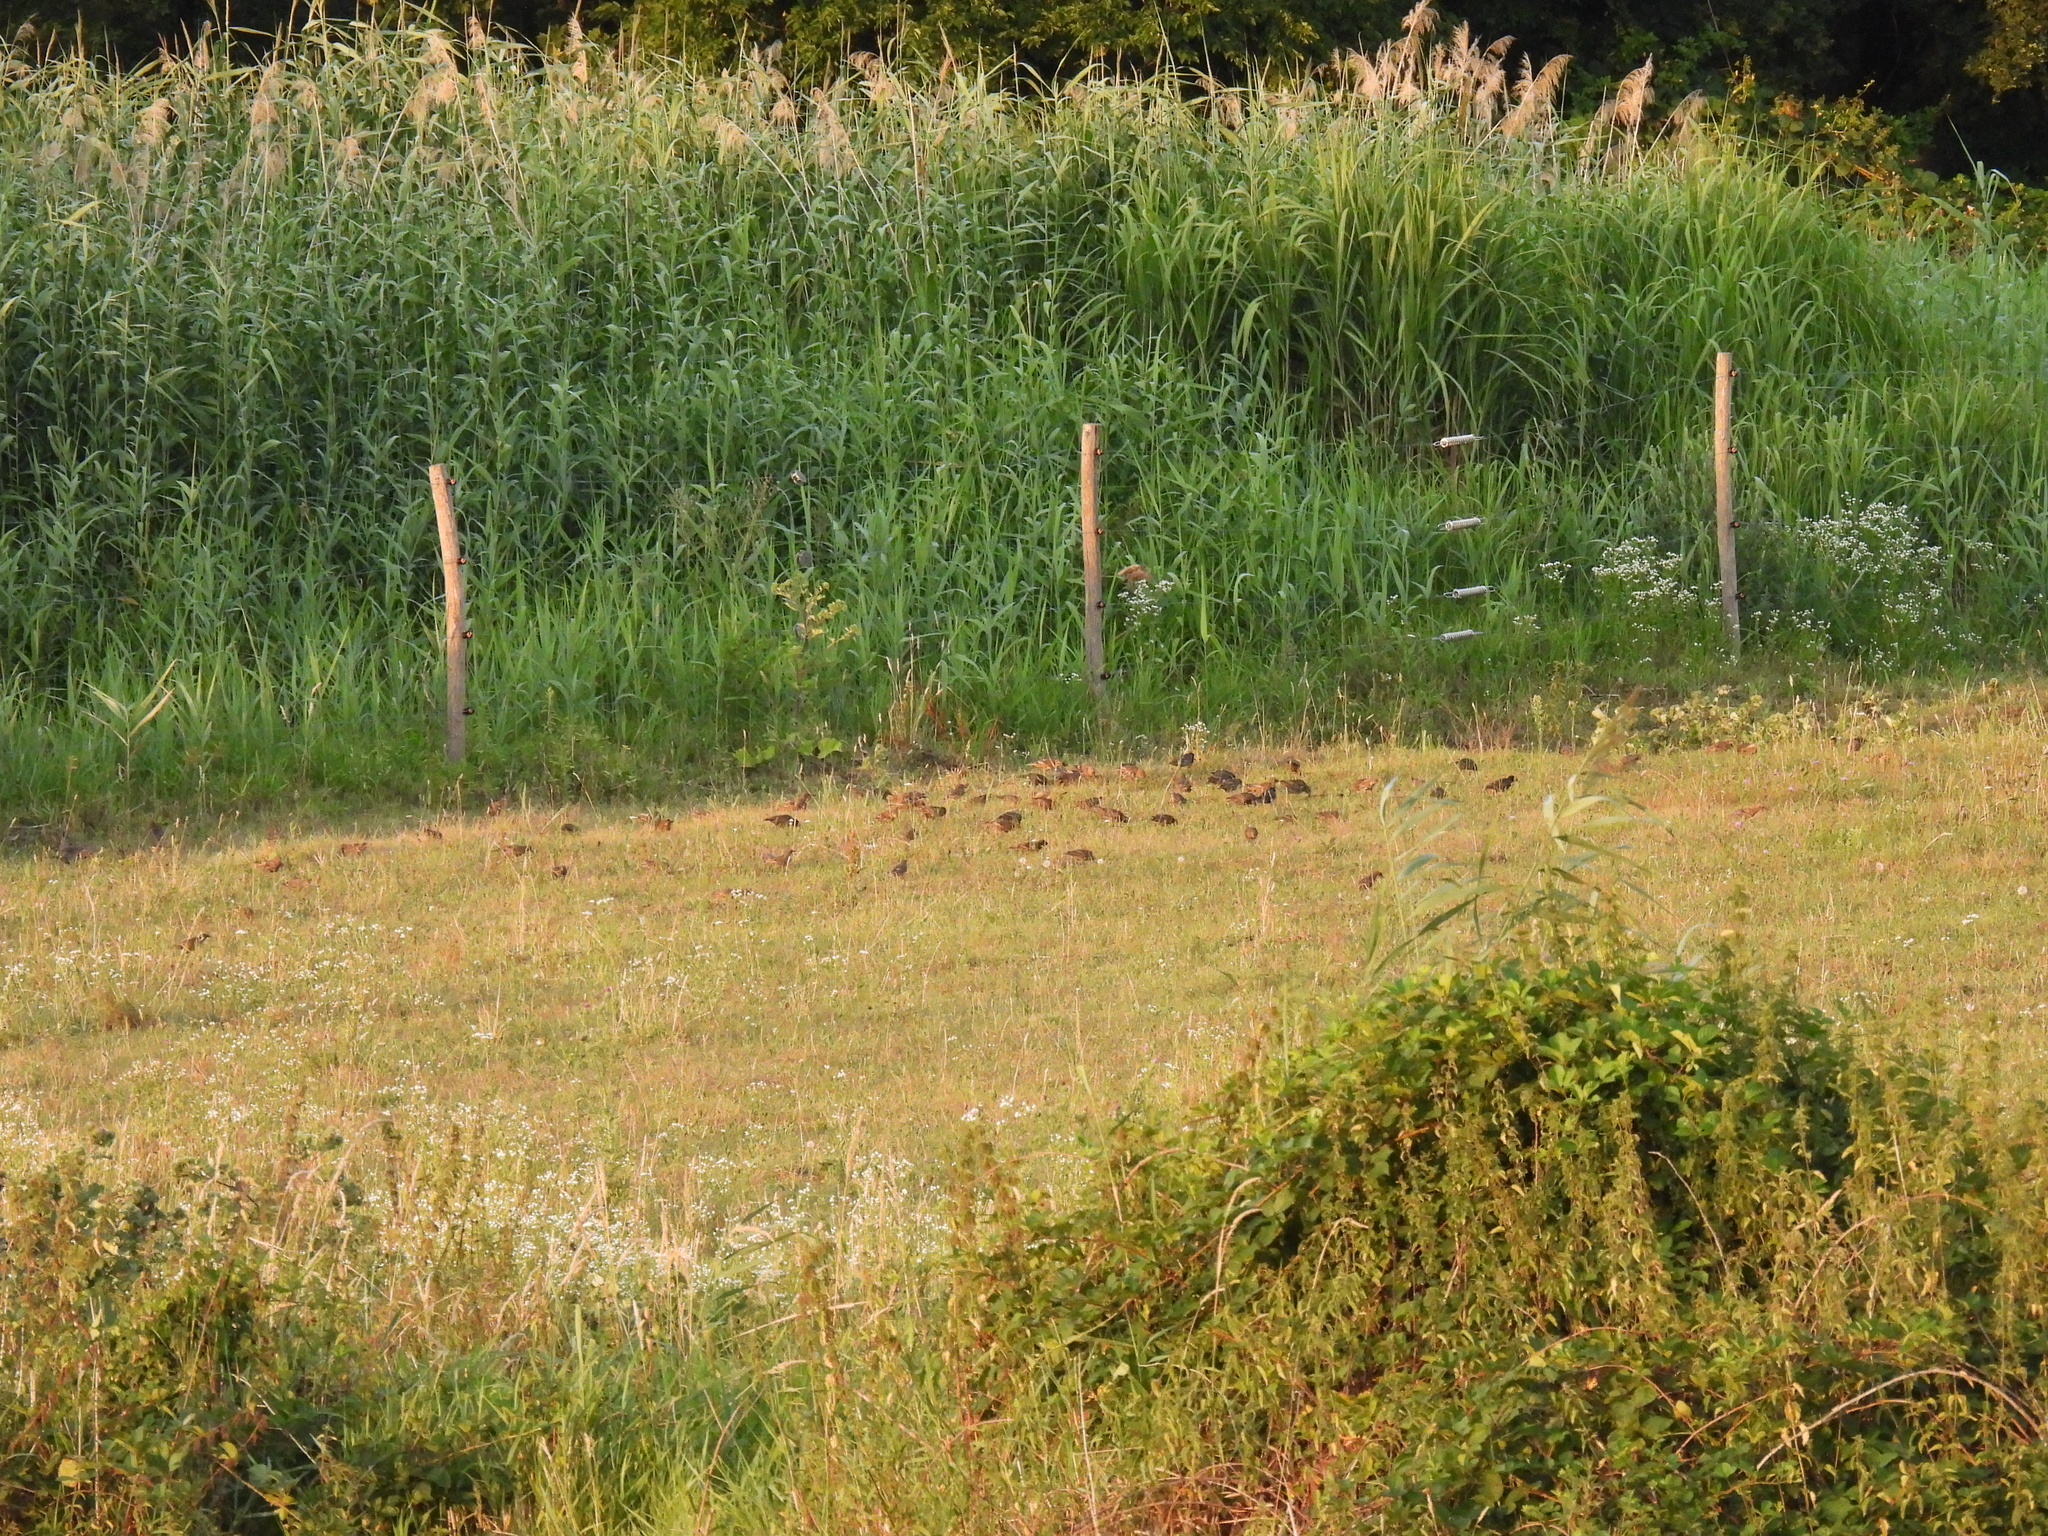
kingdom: Animalia
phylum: Chordata
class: Aves
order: Passeriformes
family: Sturnidae
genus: Sturnus
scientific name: Sturnus vulgaris
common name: Common starling
